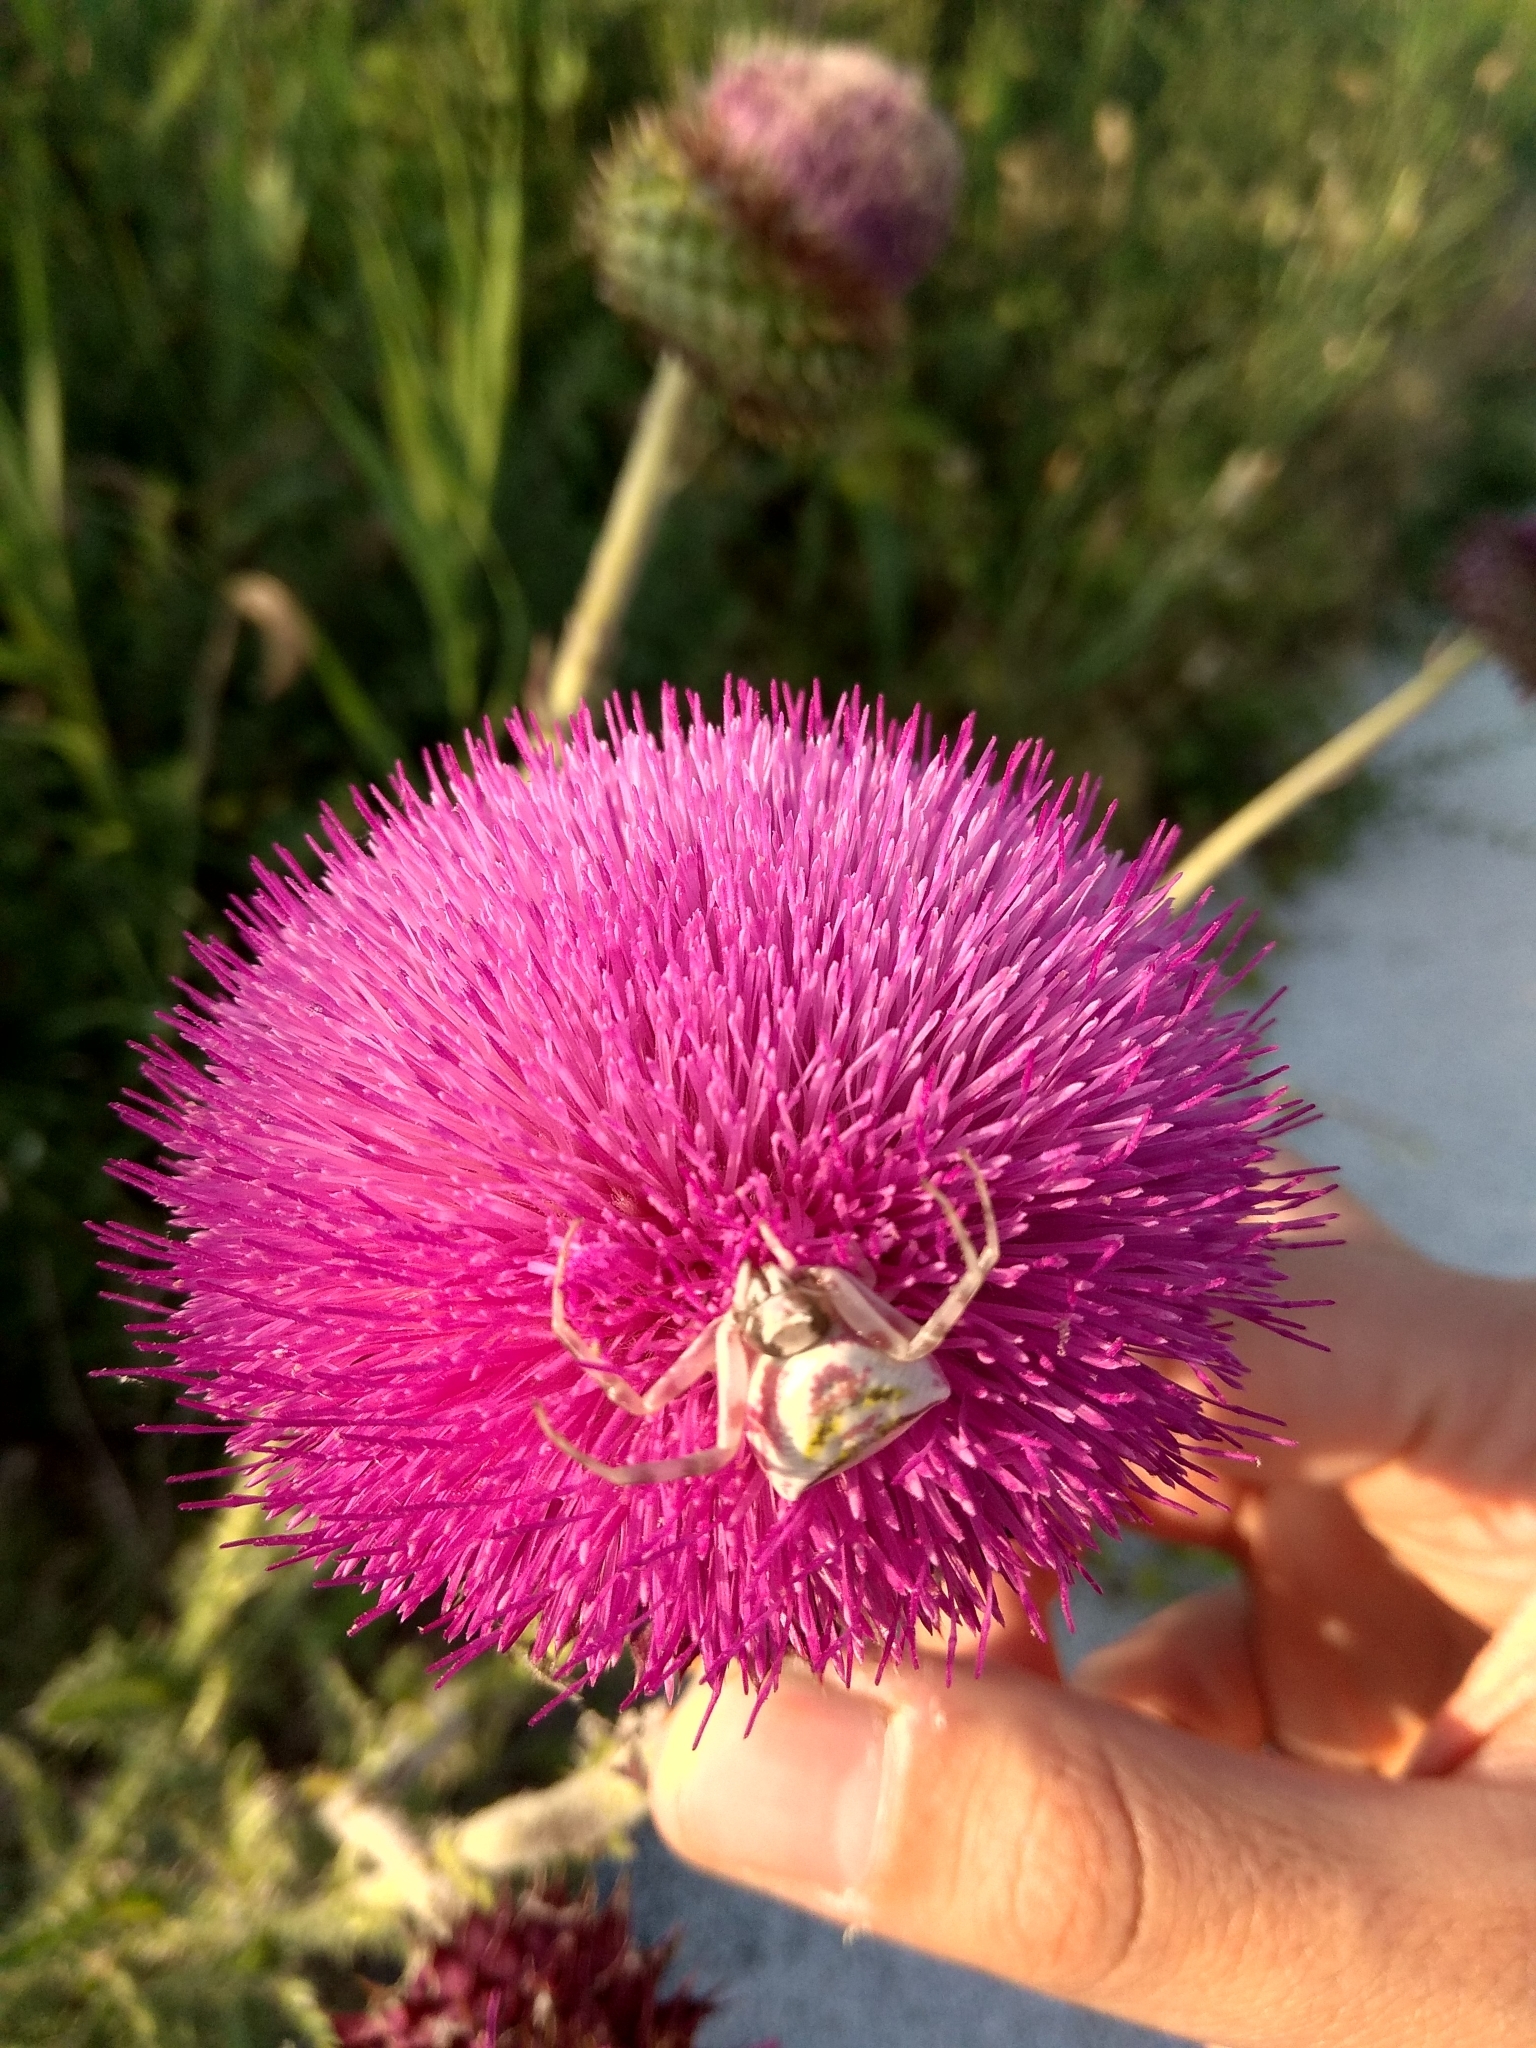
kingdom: Animalia
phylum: Arthropoda
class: Arachnida
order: Araneae
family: Thomisidae
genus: Thomisus
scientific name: Thomisus onustus
